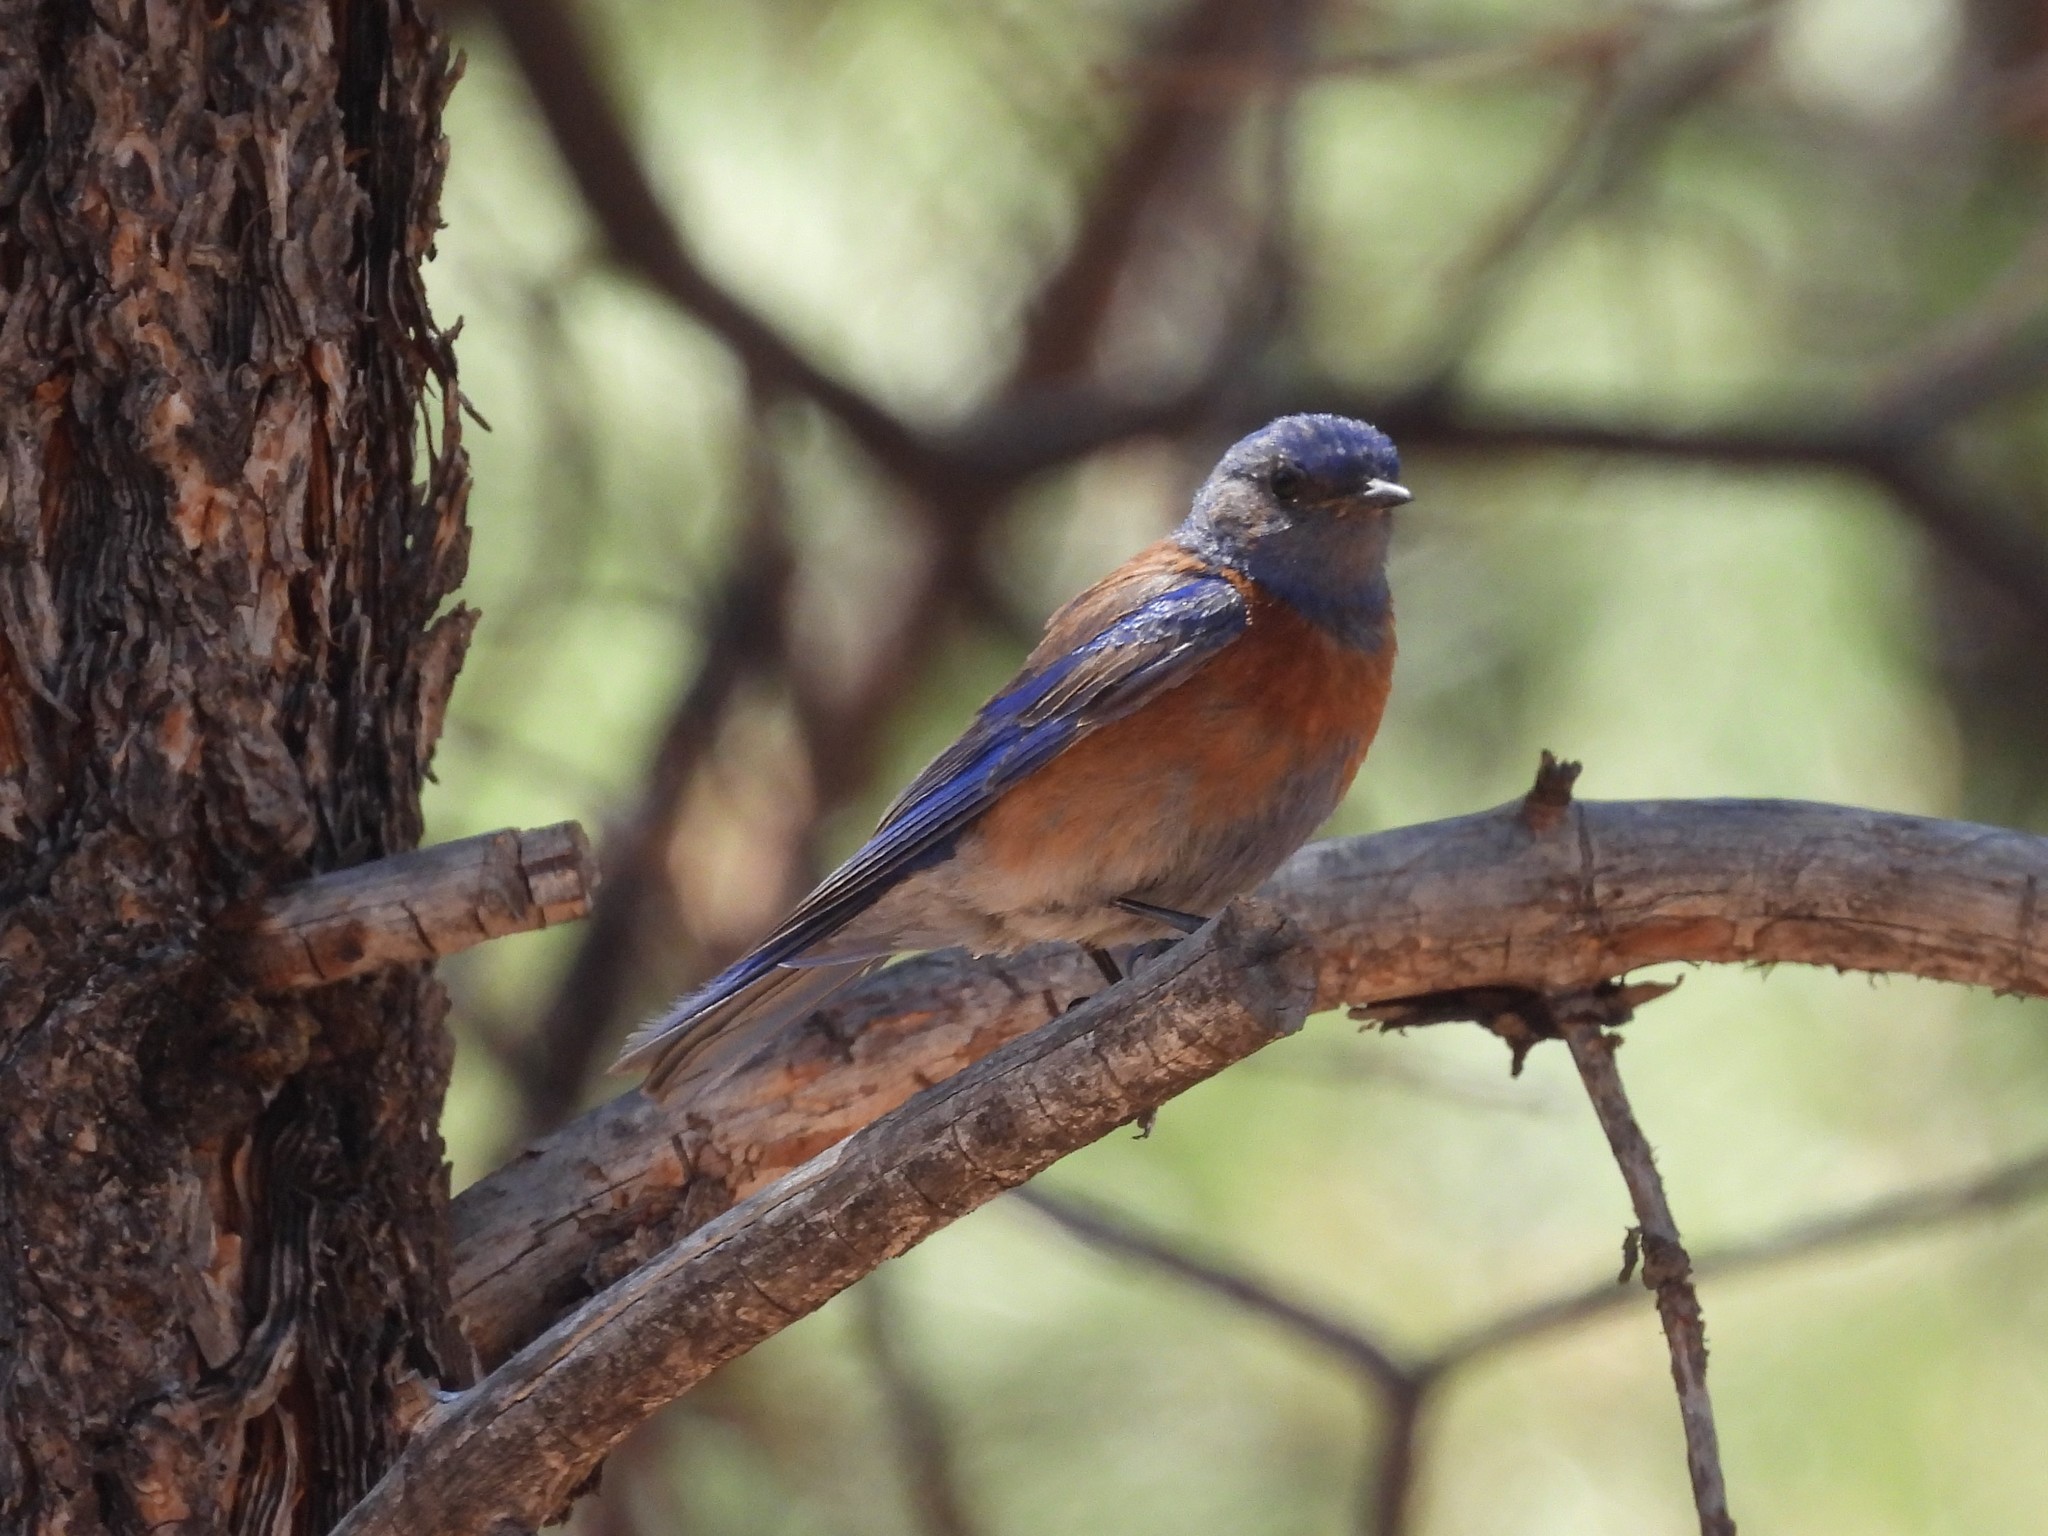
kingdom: Animalia
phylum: Chordata
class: Aves
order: Passeriformes
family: Turdidae
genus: Sialia
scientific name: Sialia mexicana
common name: Western bluebird
